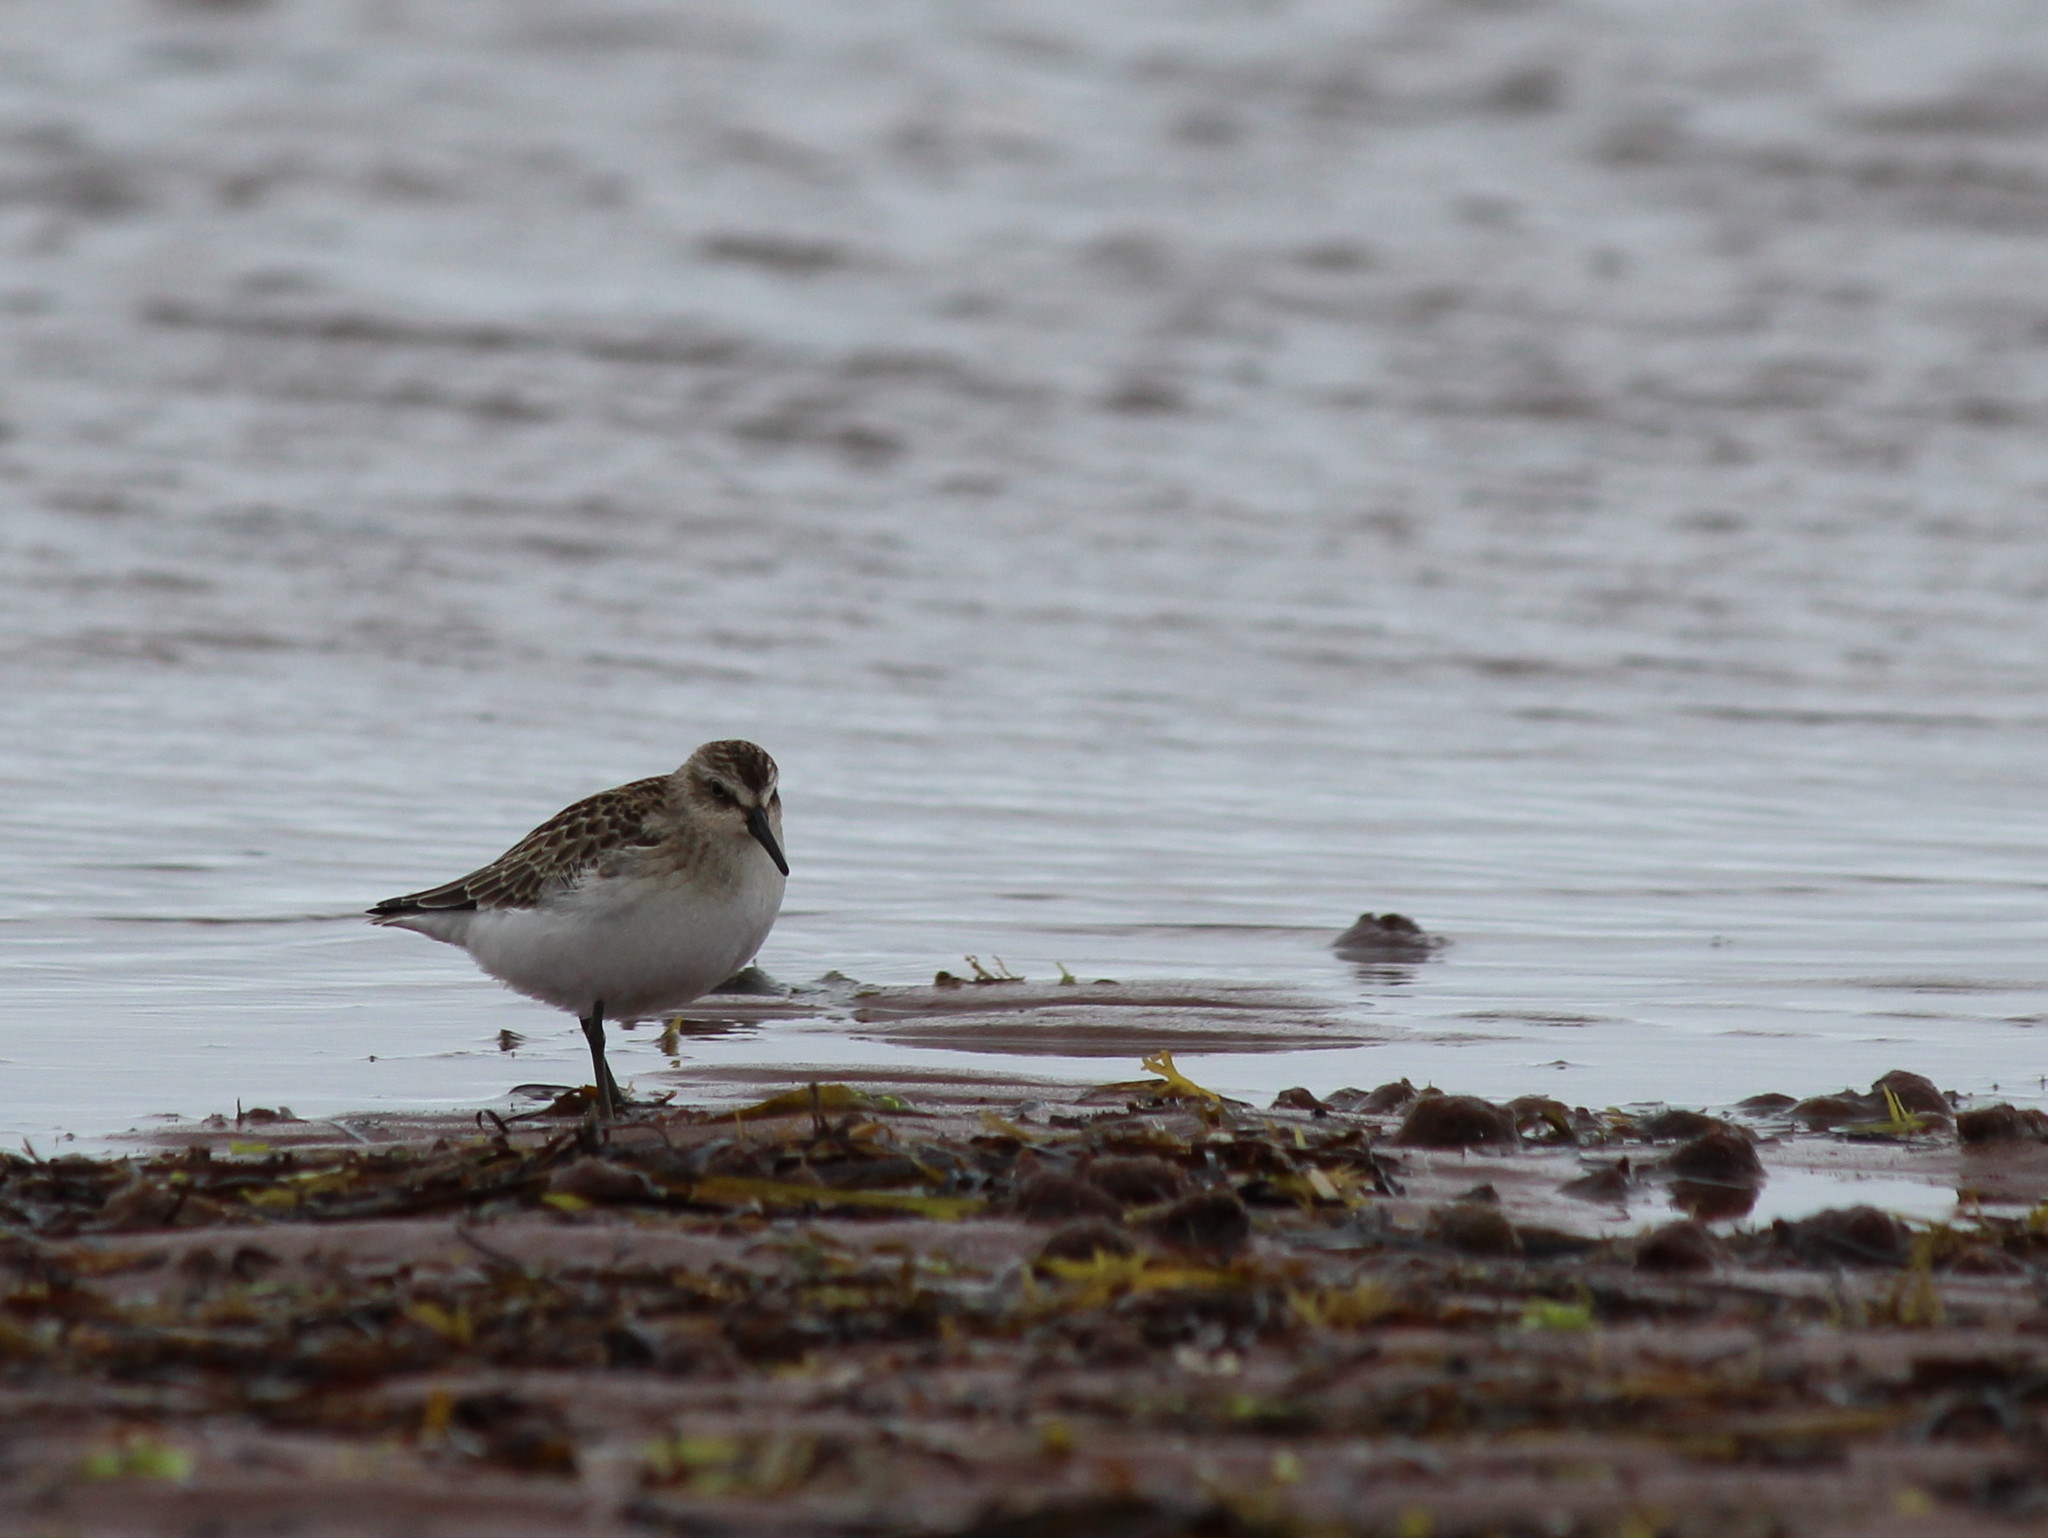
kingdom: Animalia
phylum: Chordata
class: Aves
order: Charadriiformes
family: Scolopacidae
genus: Calidris
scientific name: Calidris pusilla
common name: Semipalmated sandpiper
